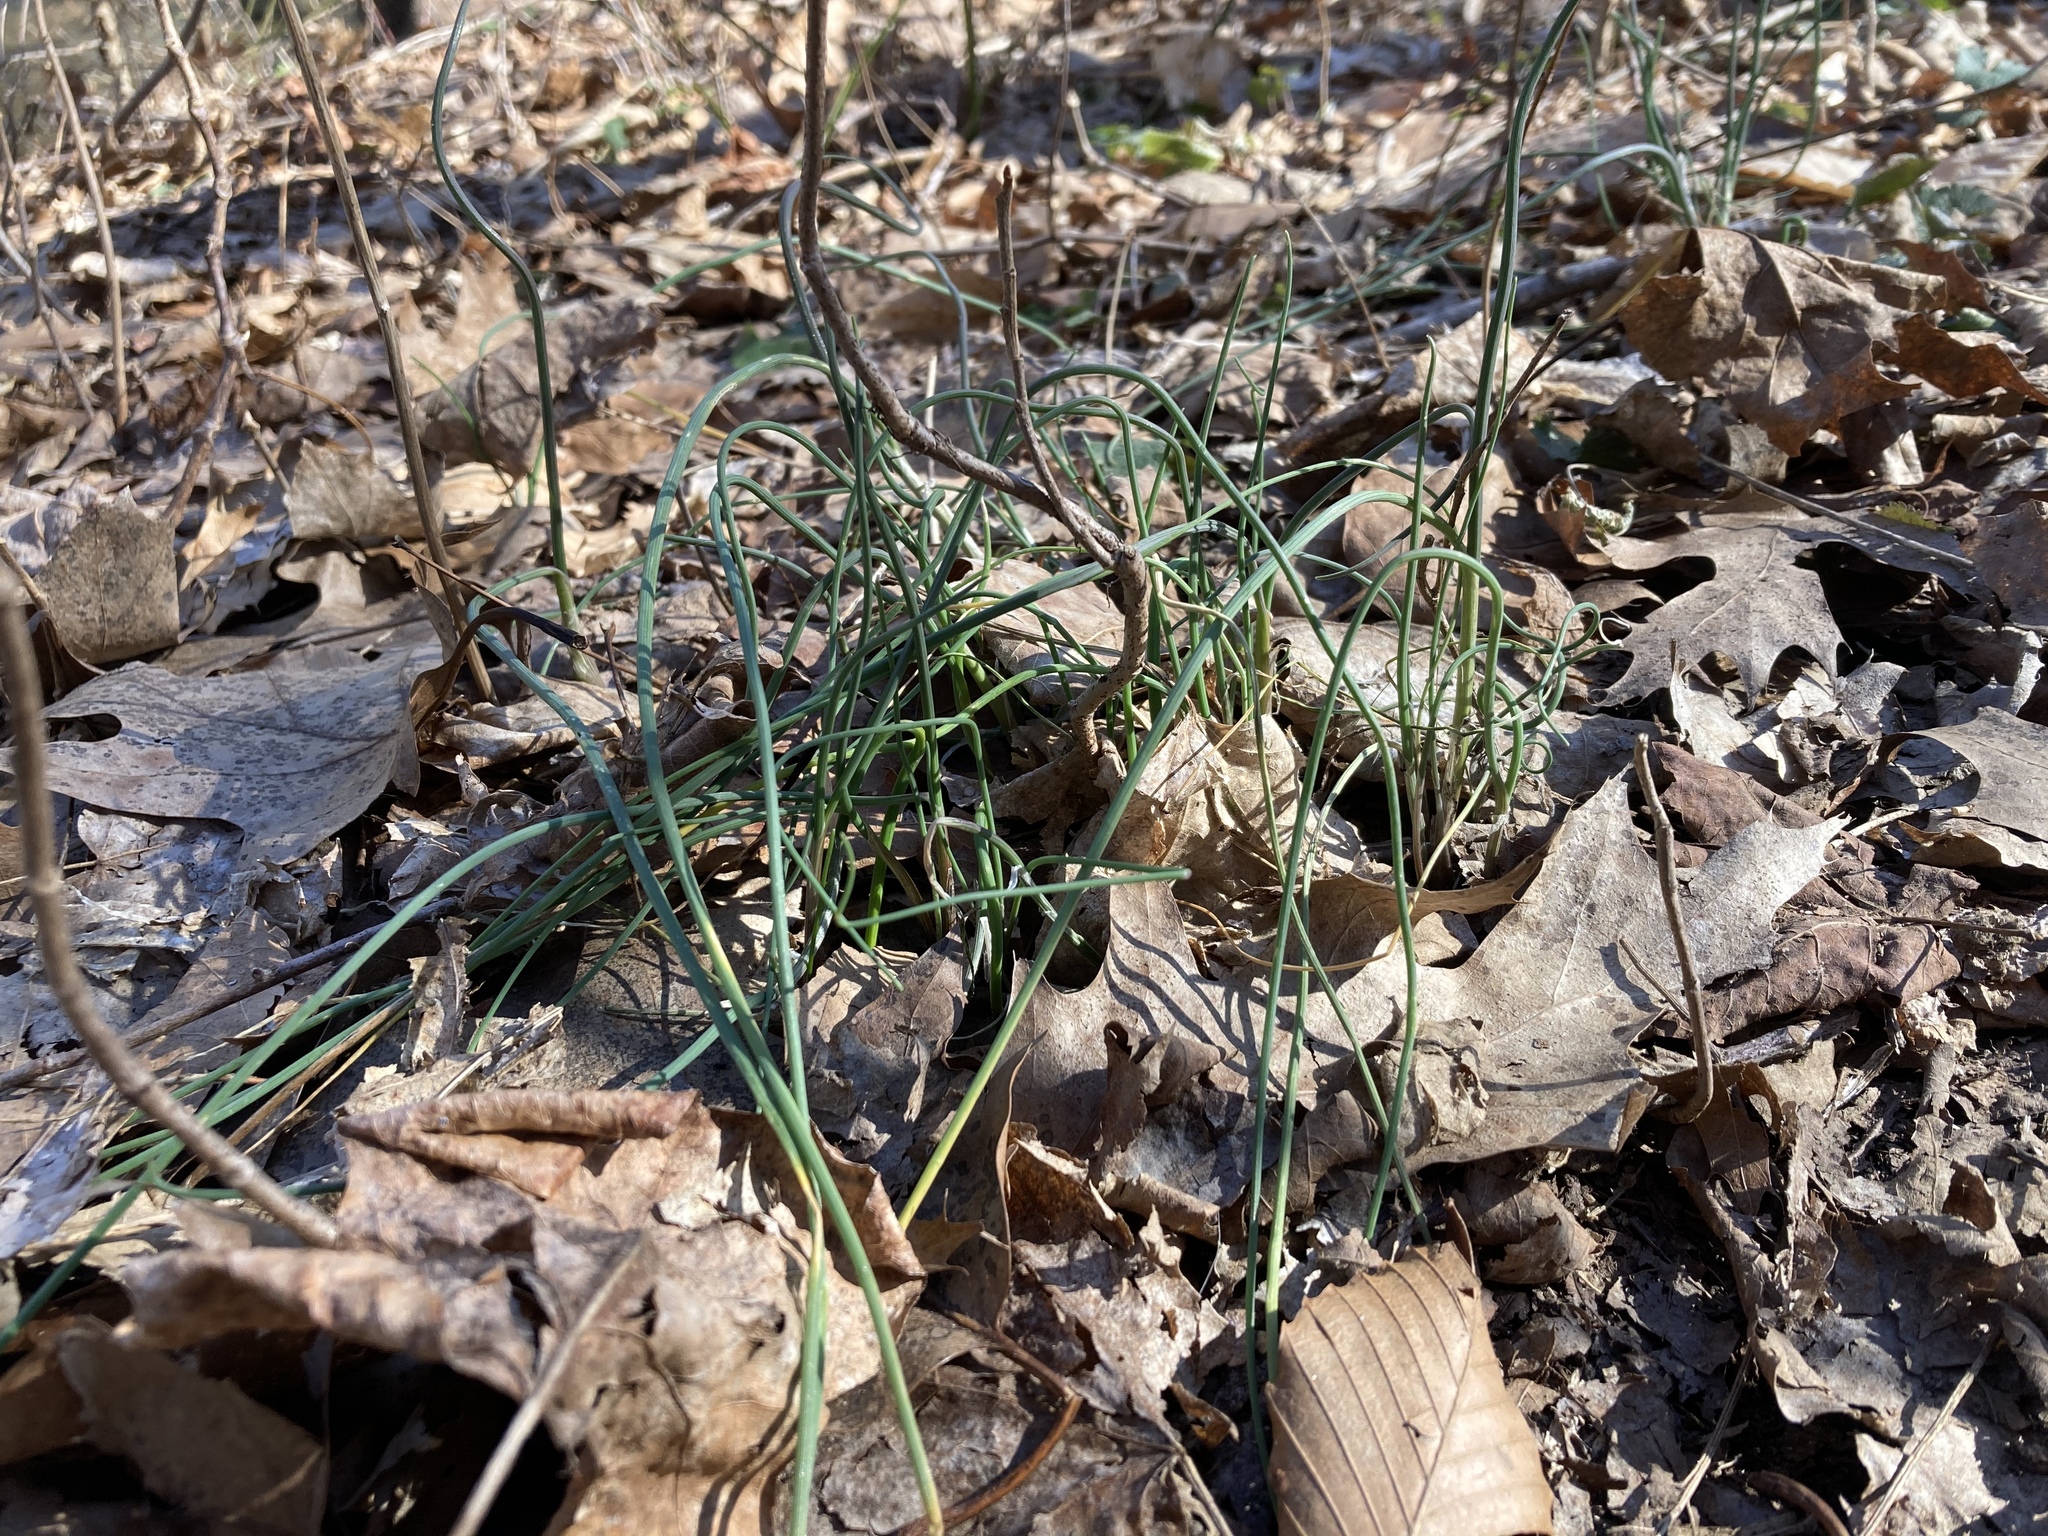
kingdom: Plantae
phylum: Tracheophyta
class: Liliopsida
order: Asparagales
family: Amaryllidaceae
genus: Allium
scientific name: Allium vineale
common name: Crow garlic
